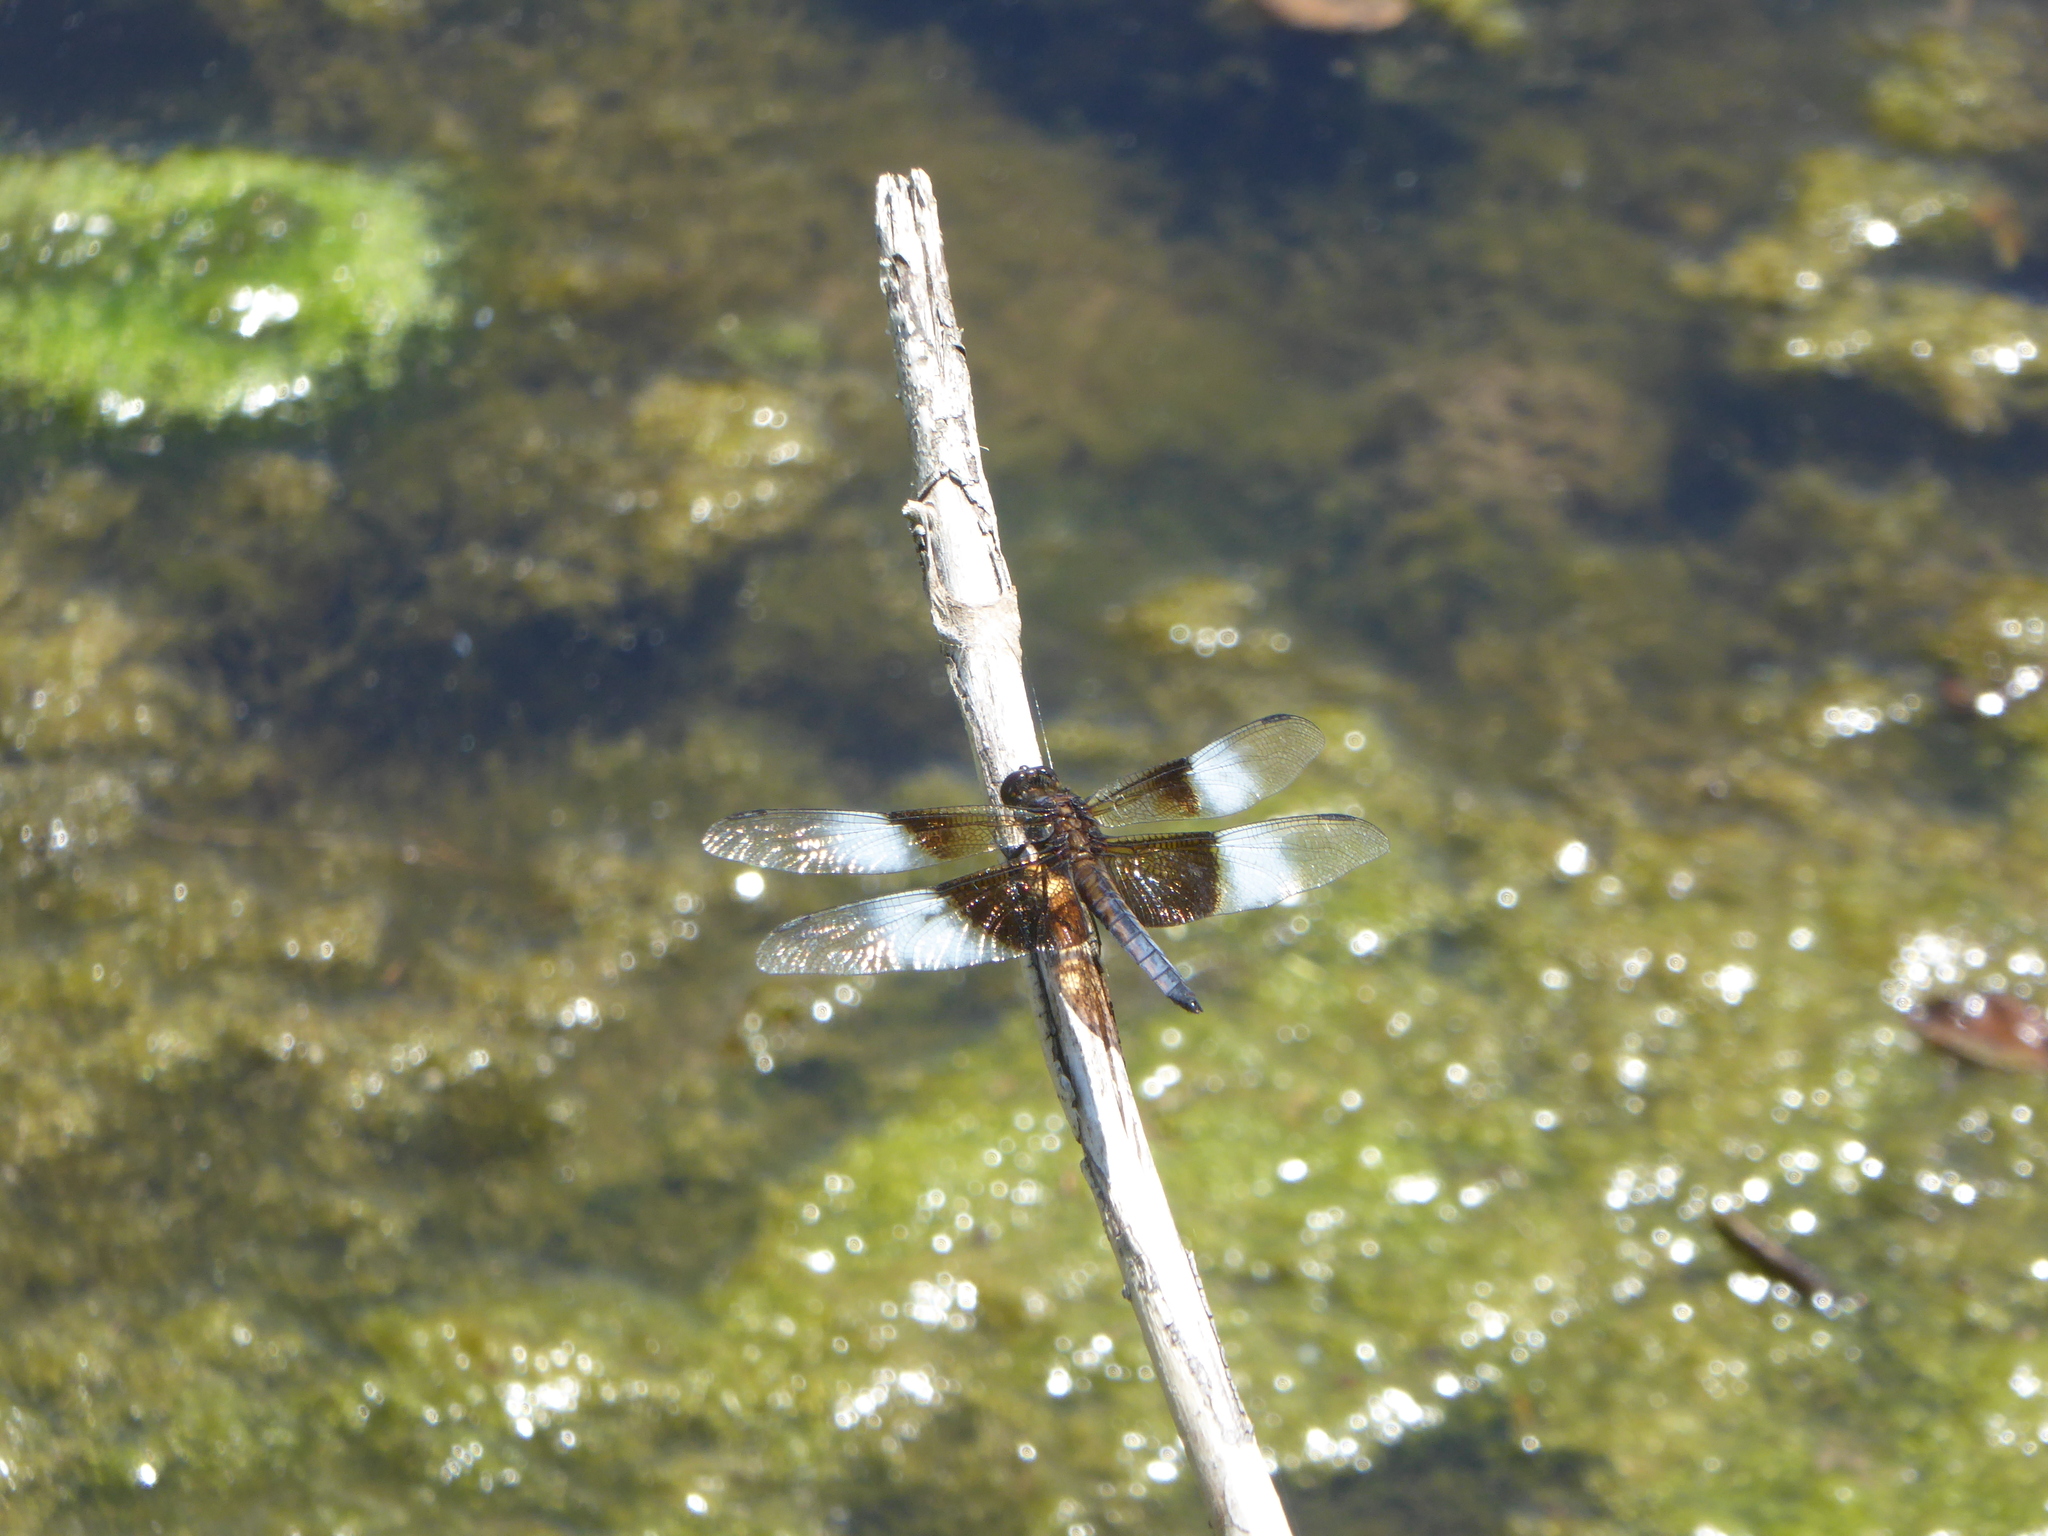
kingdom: Animalia
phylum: Arthropoda
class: Insecta
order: Odonata
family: Libellulidae
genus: Libellula
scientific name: Libellula luctuosa
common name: Widow skimmer
